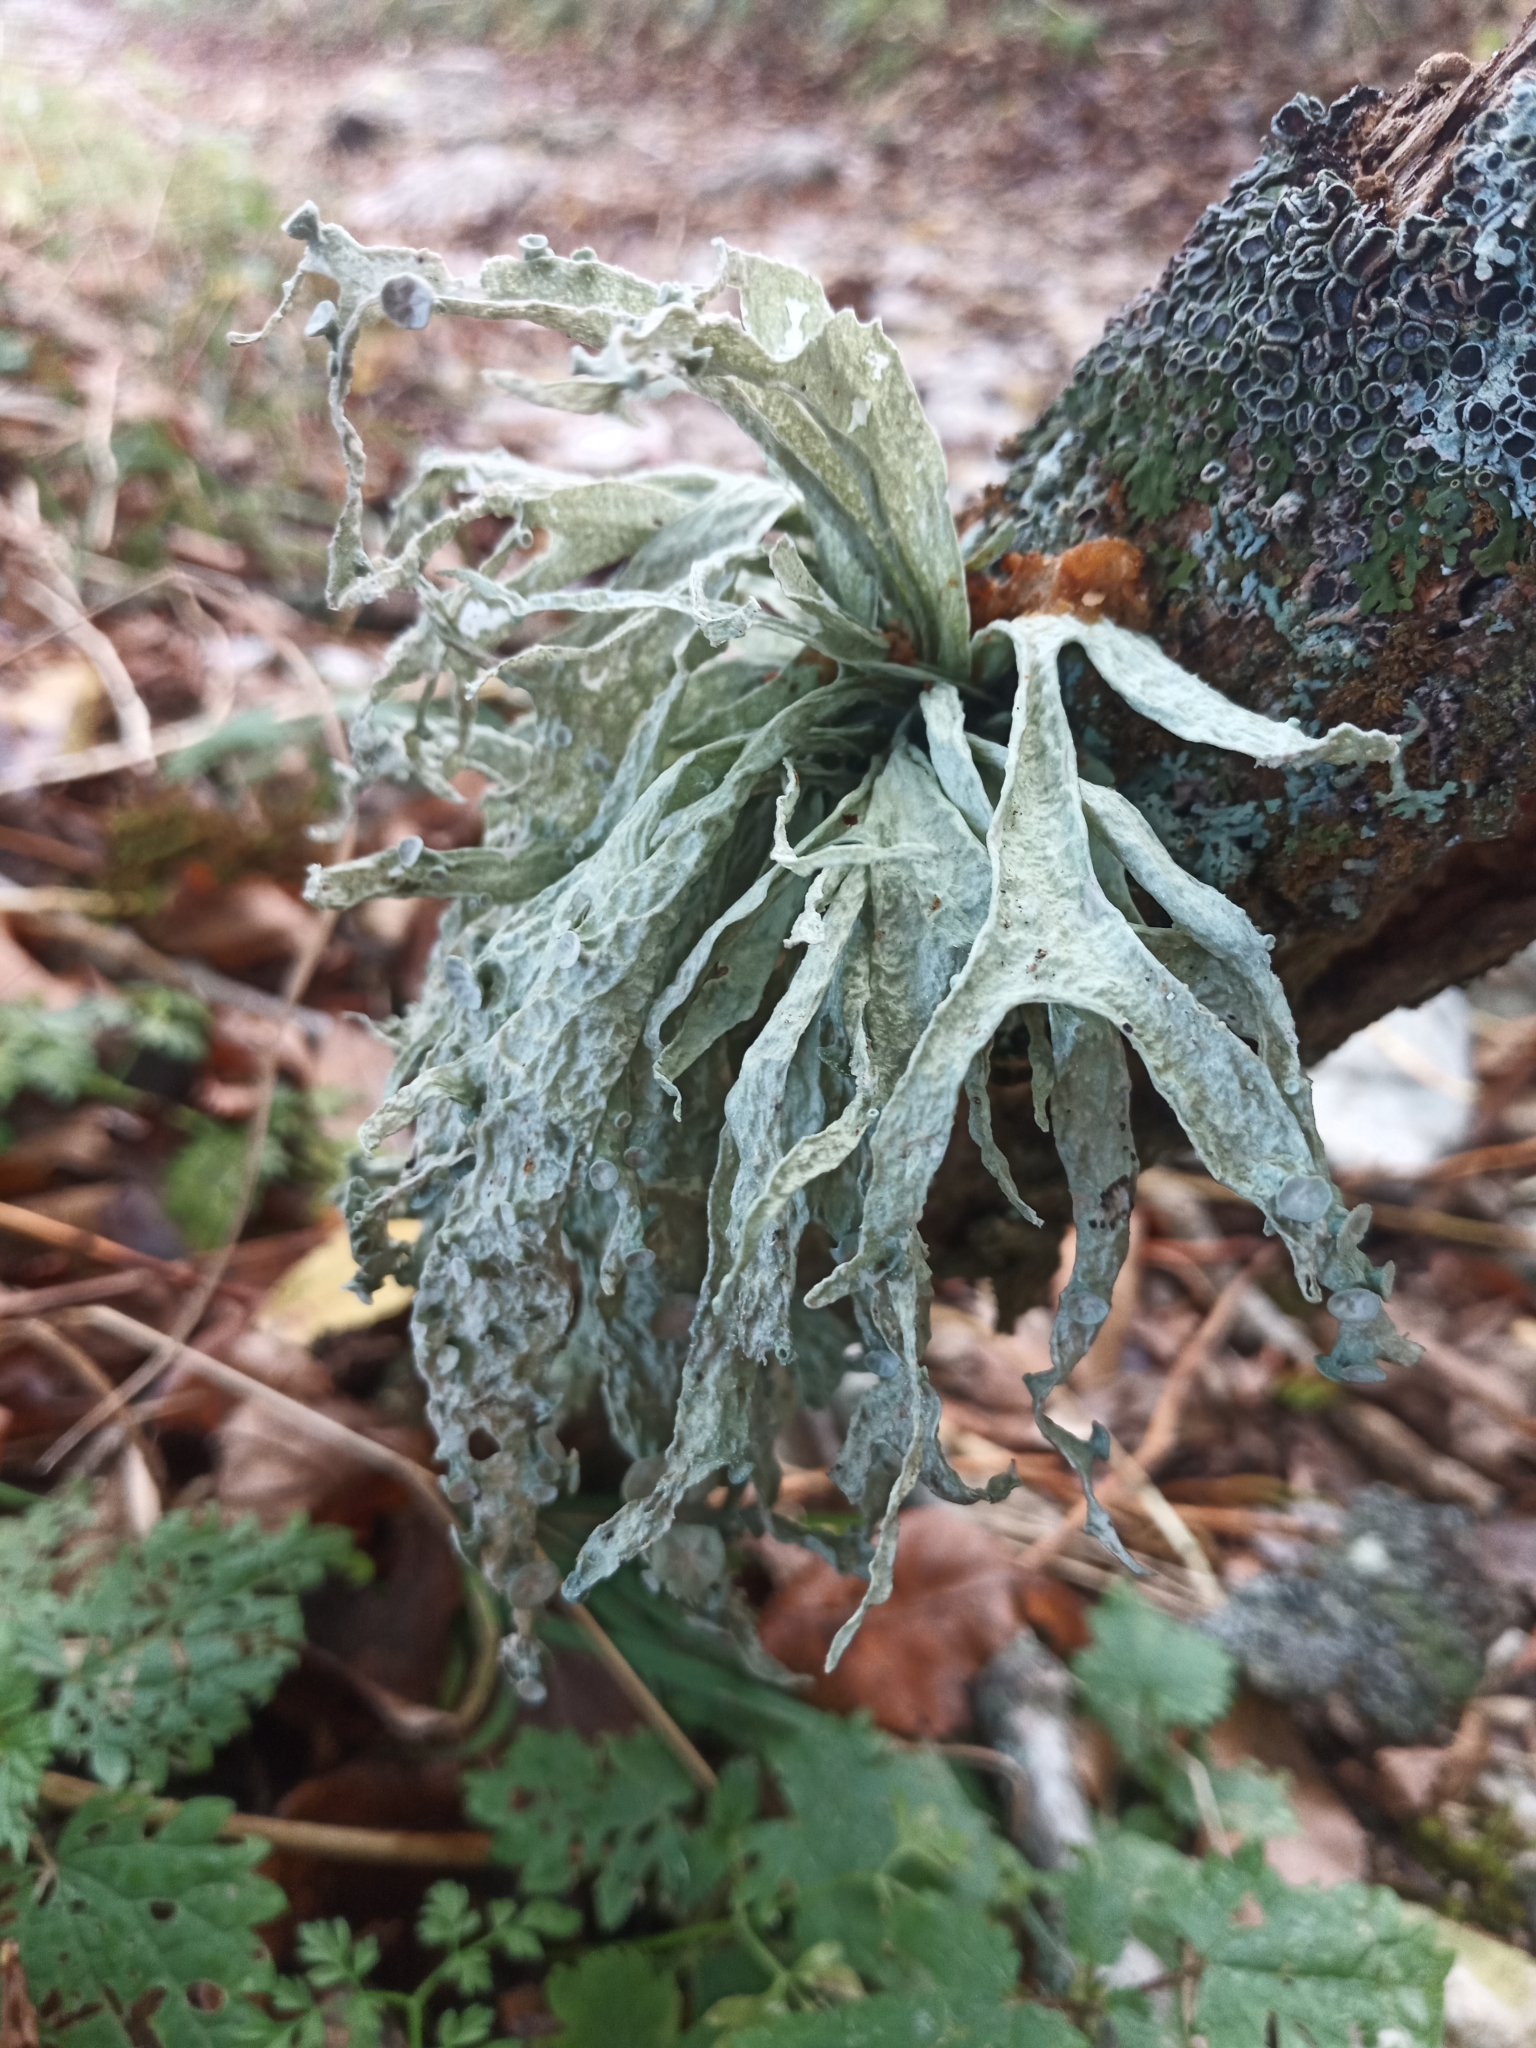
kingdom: Fungi
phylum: Ascomycota
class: Lecanoromycetes
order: Lecanorales
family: Ramalinaceae
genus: Ramalina
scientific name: Ramalina fraxinea
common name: Cartilage lichen
